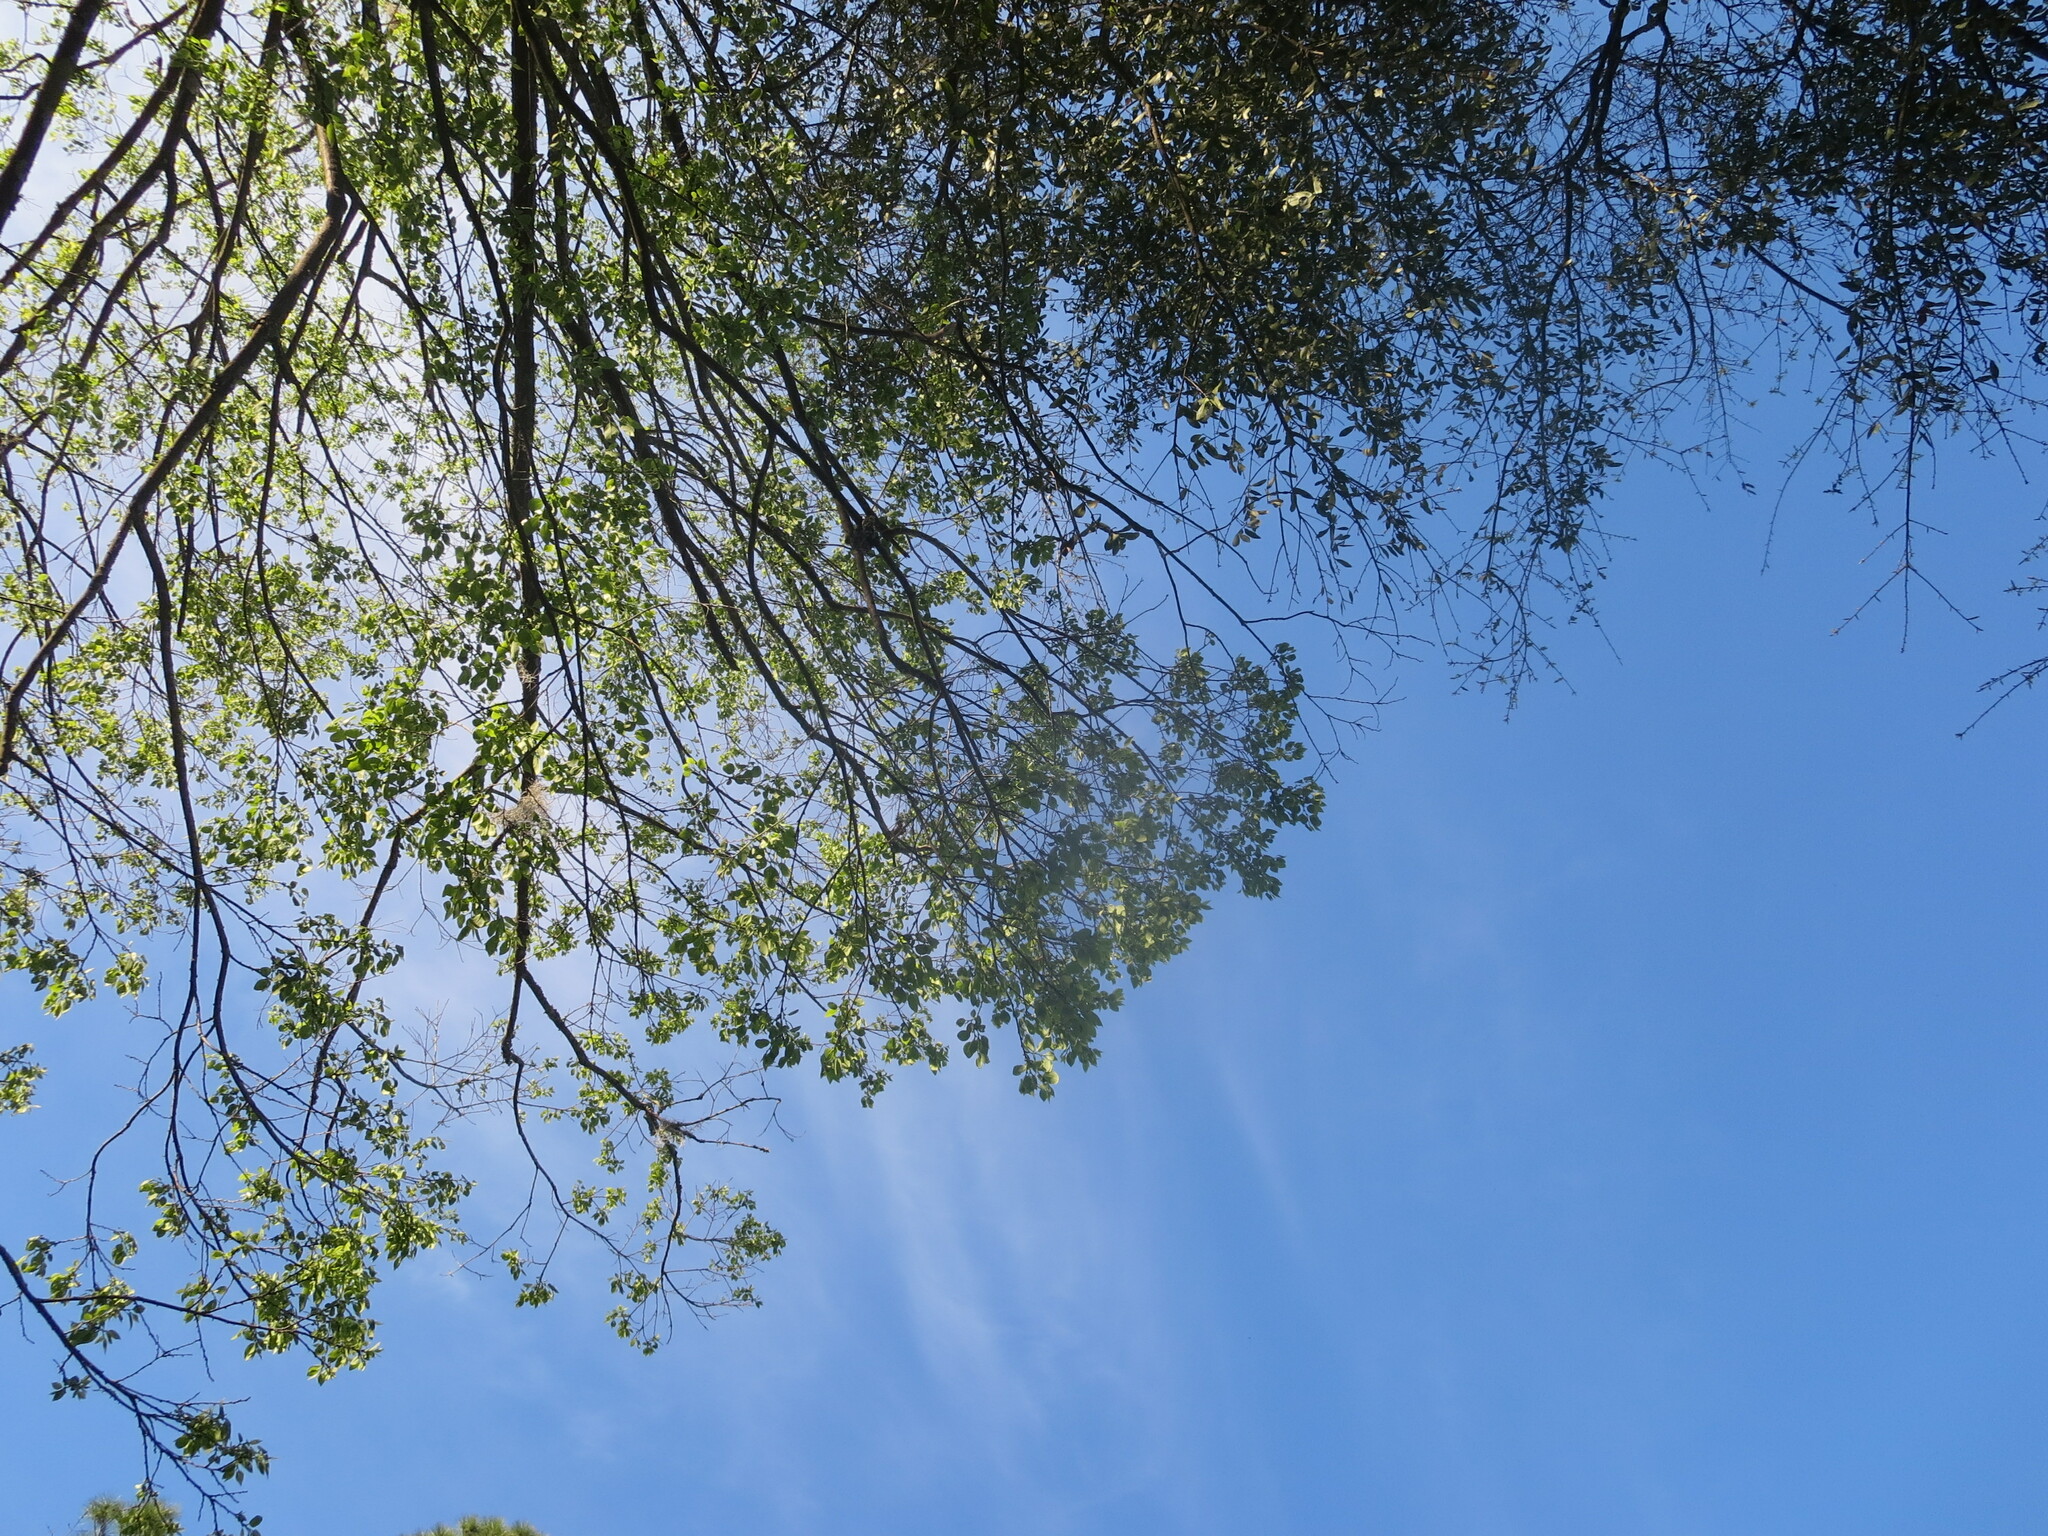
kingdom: Plantae
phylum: Tracheophyta
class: Magnoliopsida
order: Ericales
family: Ebenaceae
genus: Diospyros
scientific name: Diospyros virginiana
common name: Persimmon
